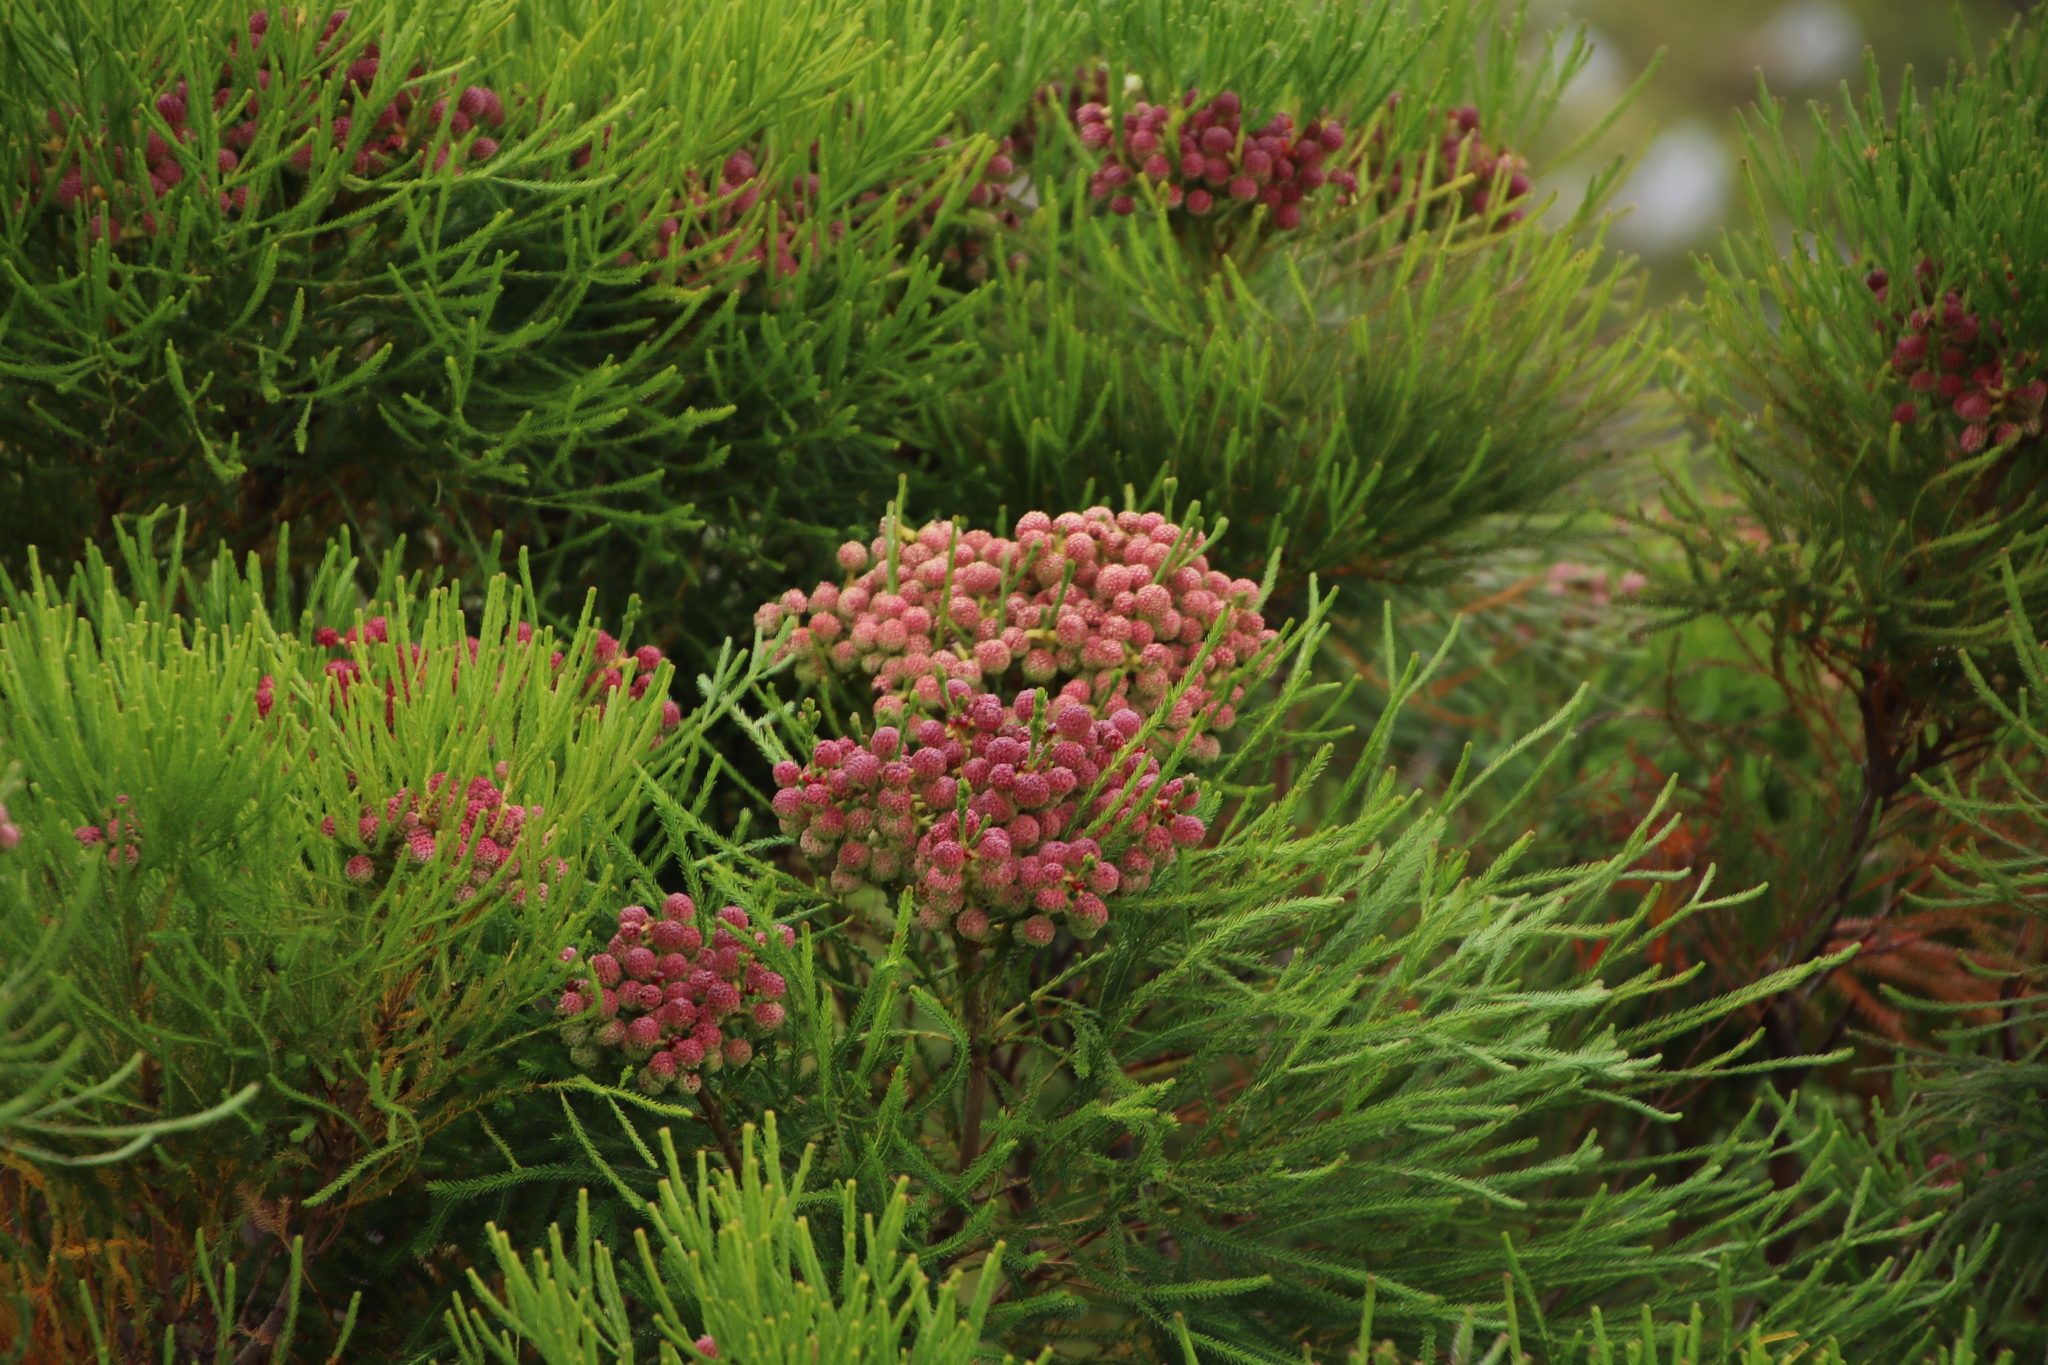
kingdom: Plantae
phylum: Tracheophyta
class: Magnoliopsida
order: Bruniales
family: Bruniaceae
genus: Berzelia
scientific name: Berzelia lanuginosa
